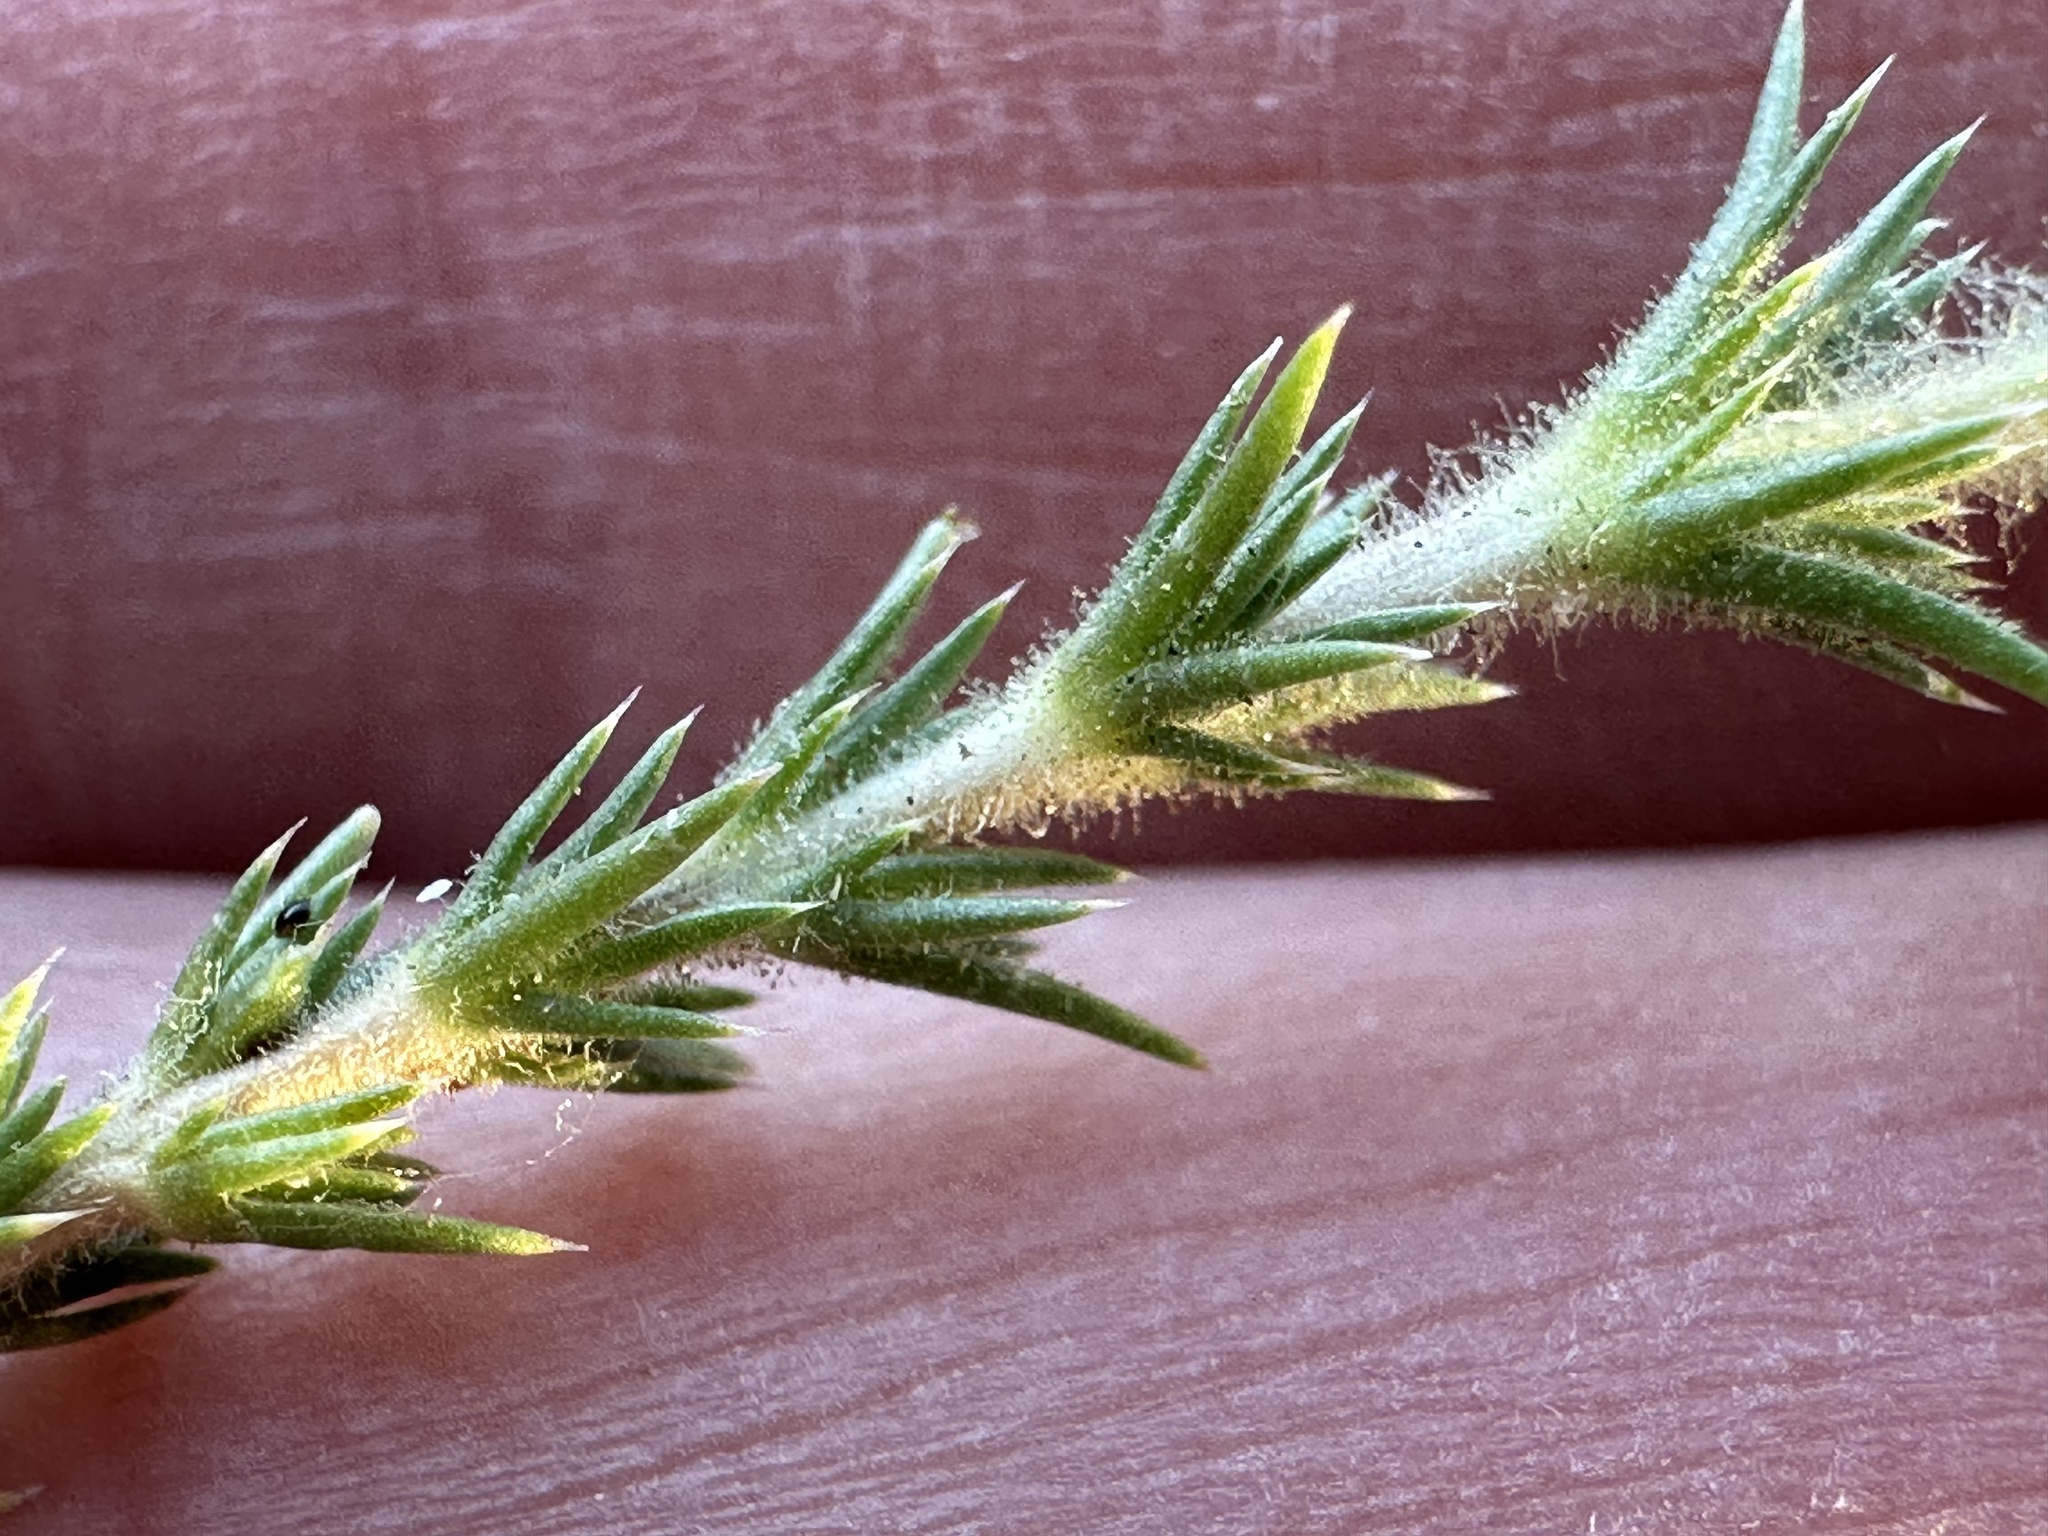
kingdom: Plantae
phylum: Tracheophyta
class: Magnoliopsida
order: Ericales
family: Polemoniaceae
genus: Linanthus
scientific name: Linanthus pungens
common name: Granite prickly phlox
